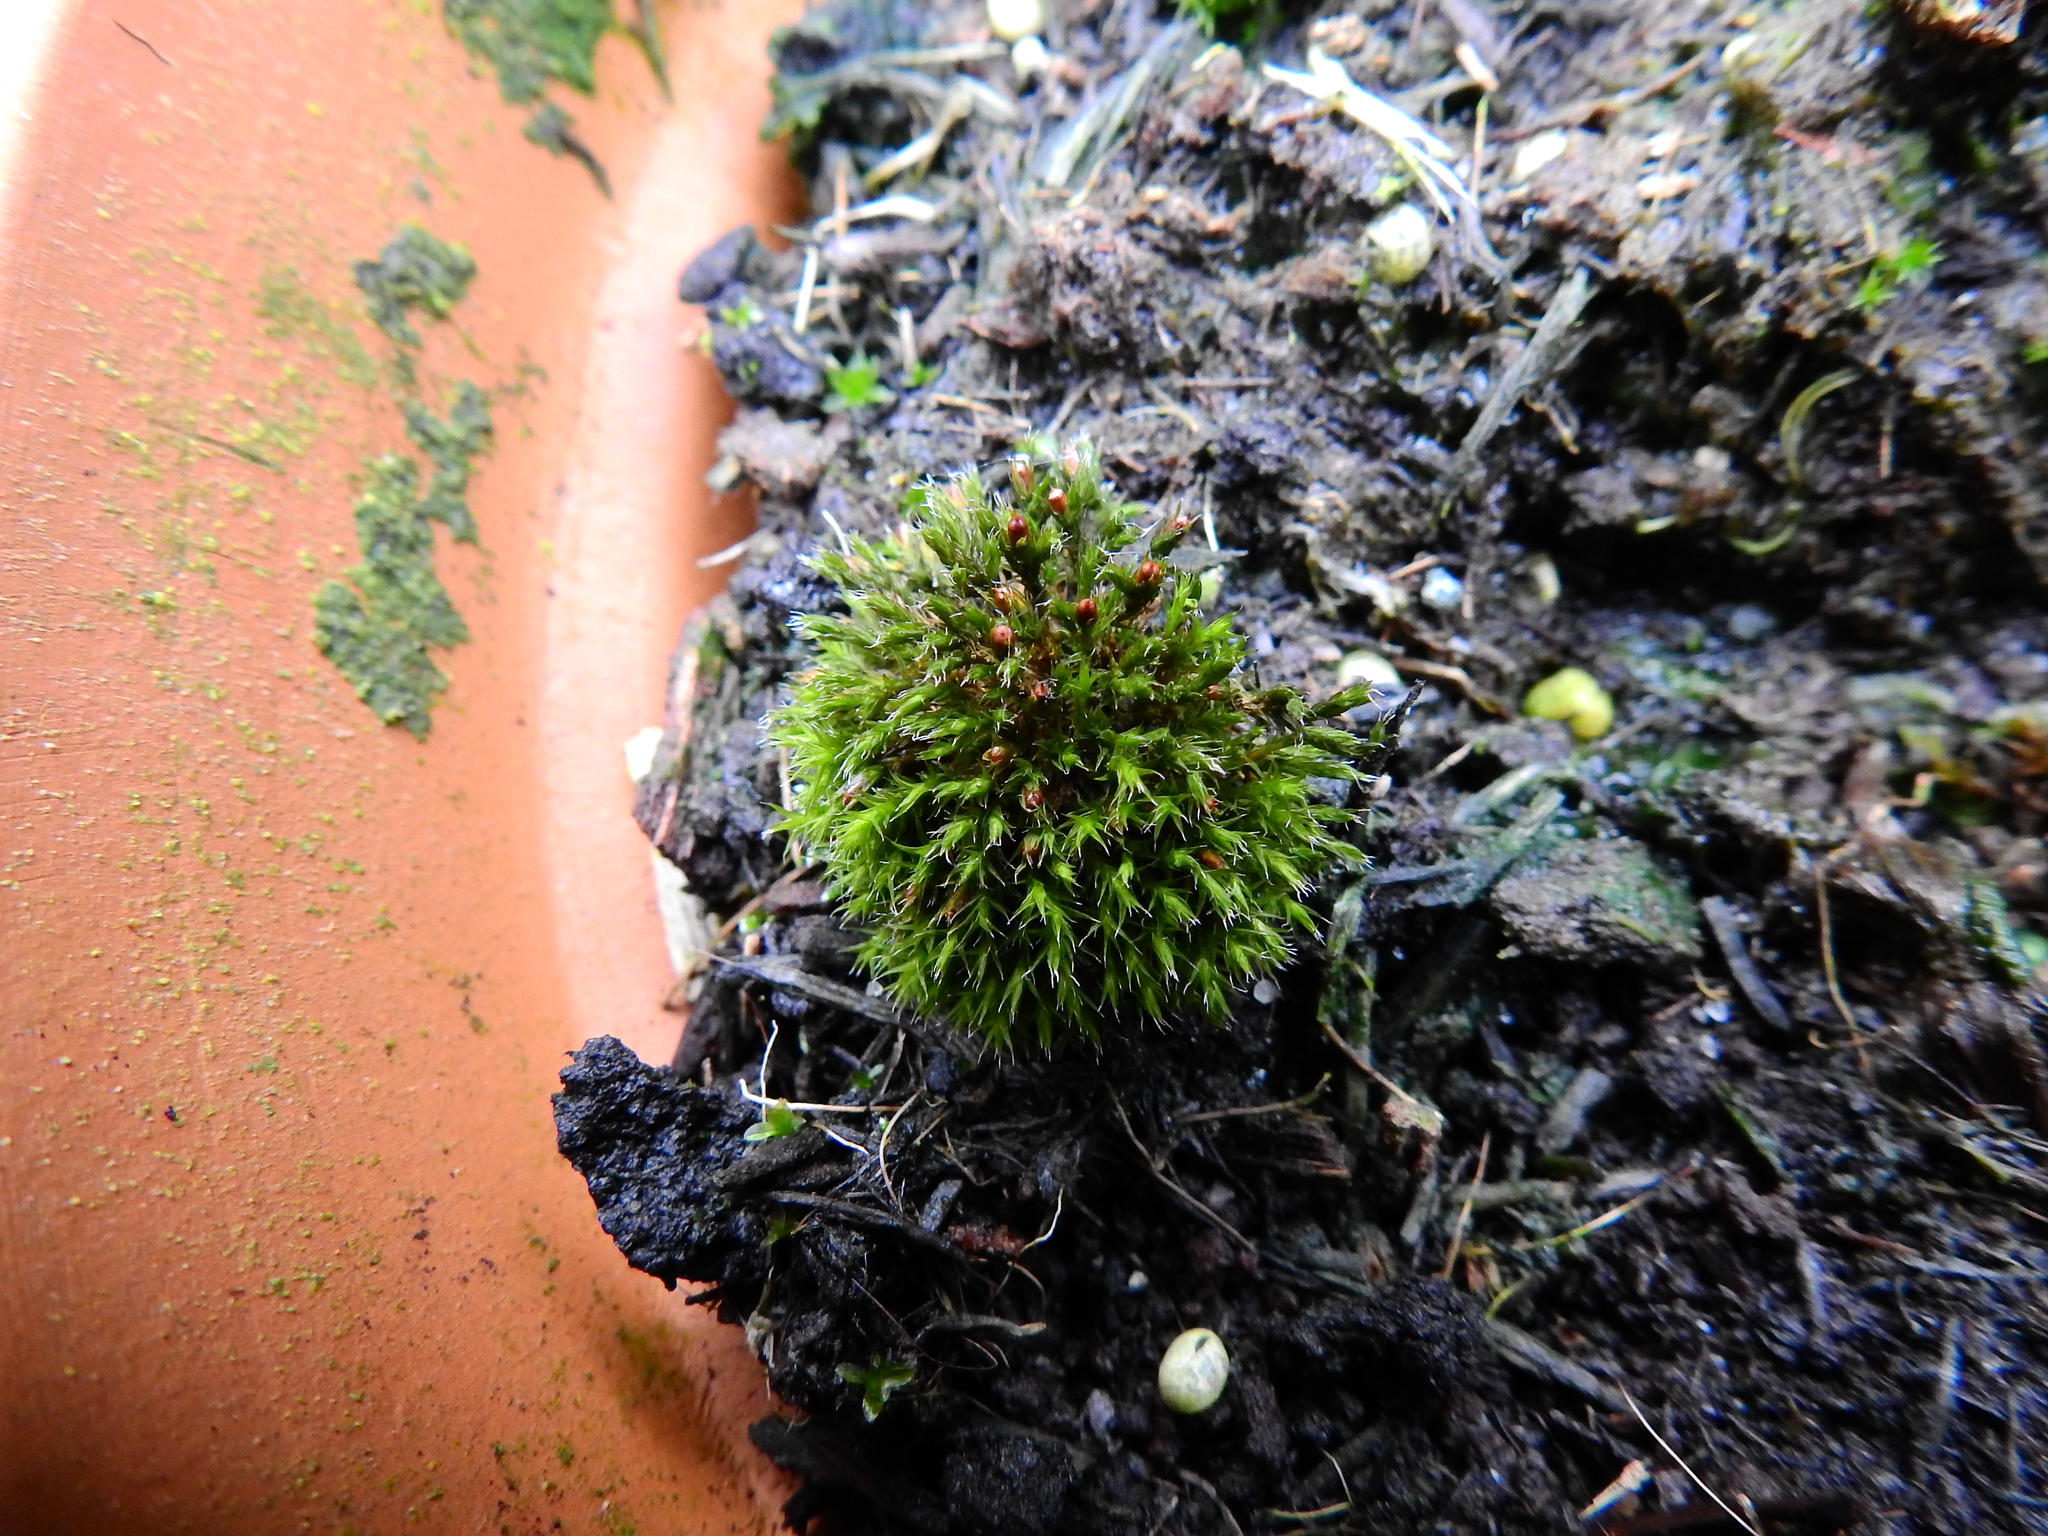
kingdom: Plantae
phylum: Bryophyta
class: Bryopsida
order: Grimmiales
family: Grimmiaceae
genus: Schistidium
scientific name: Schistidium crassipilum
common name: Thickpoint bloom moss
